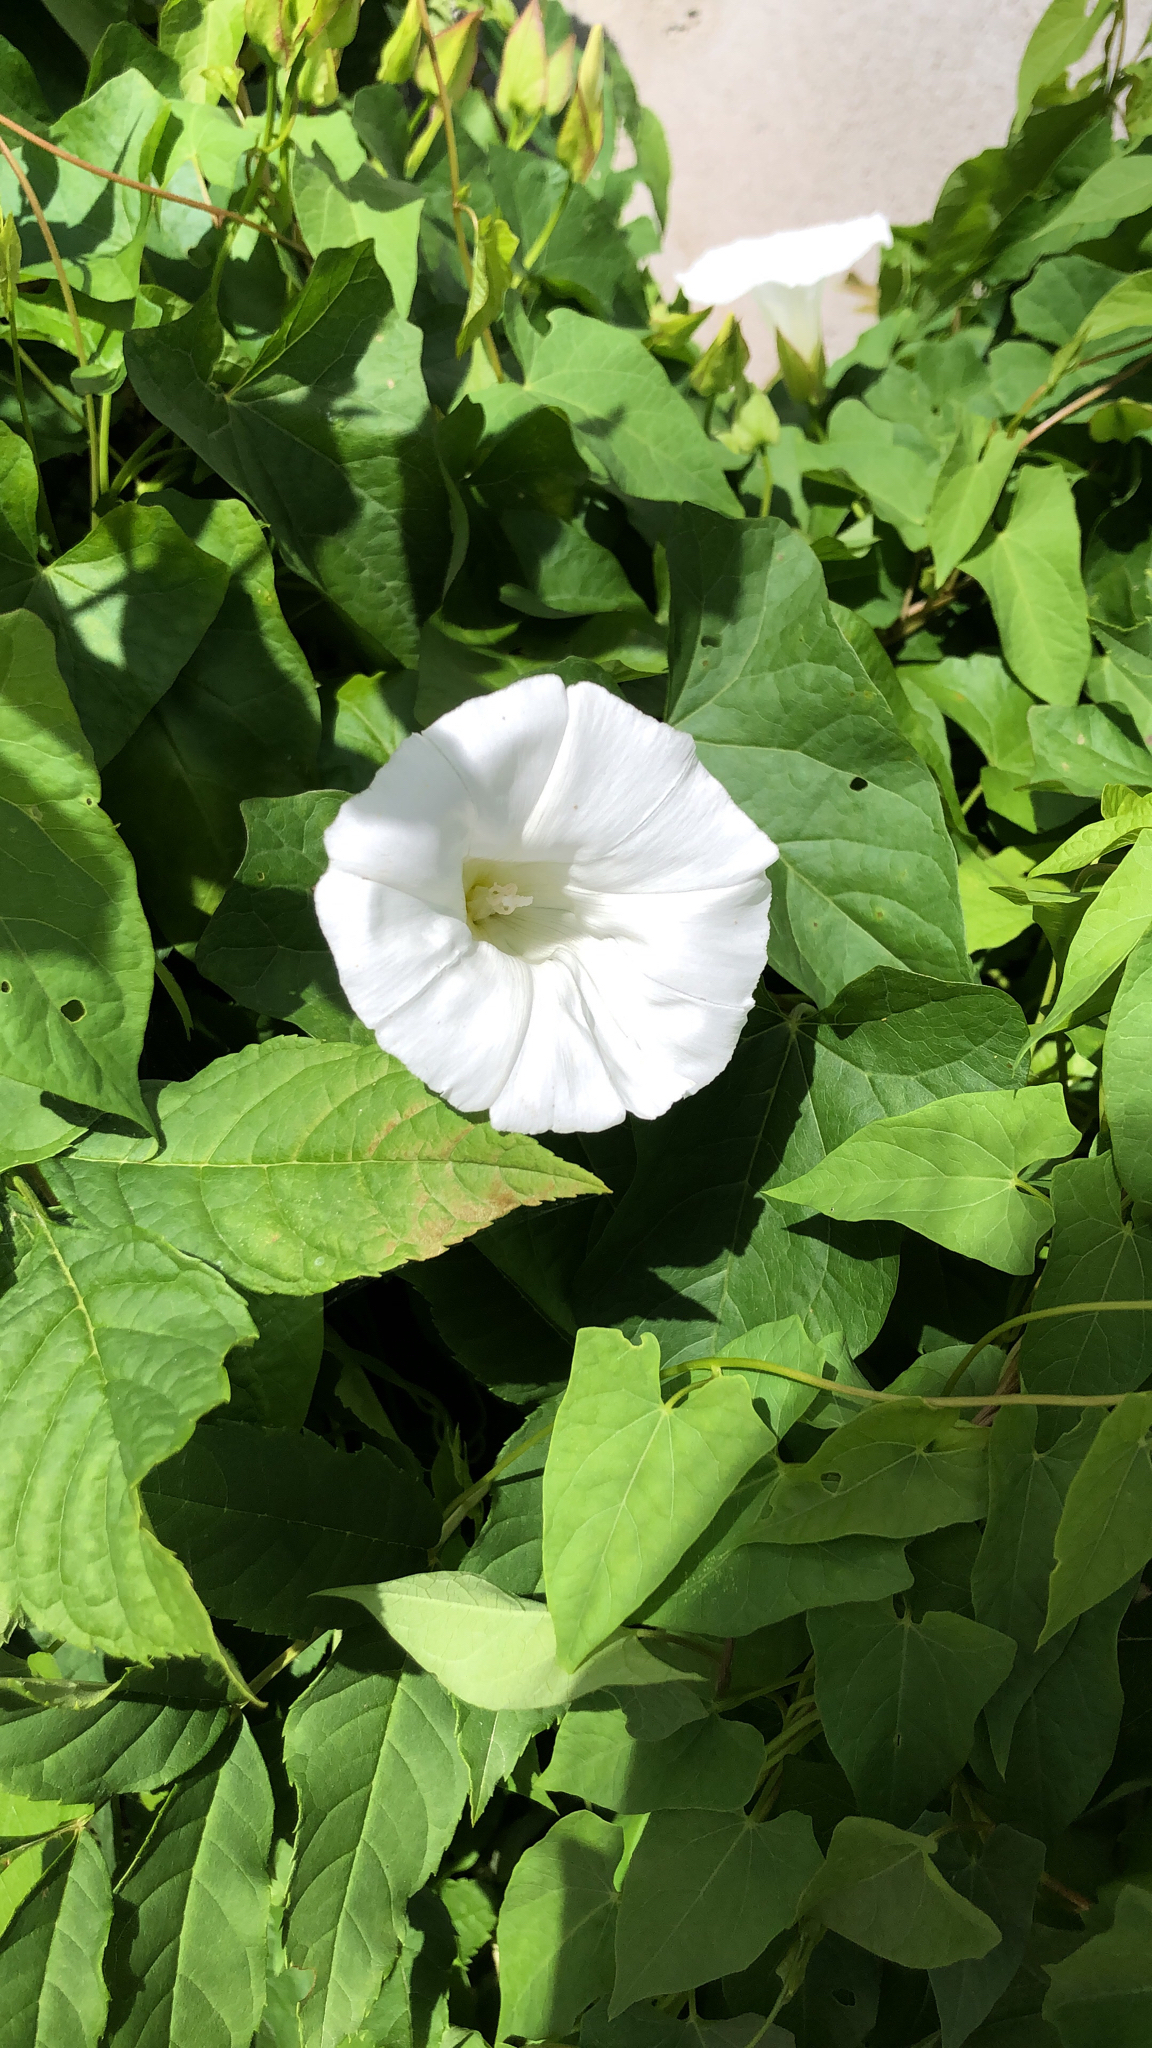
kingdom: Plantae
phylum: Tracheophyta
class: Magnoliopsida
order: Solanales
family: Convolvulaceae
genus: Calystegia
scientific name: Calystegia sepium
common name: Hedge bindweed
